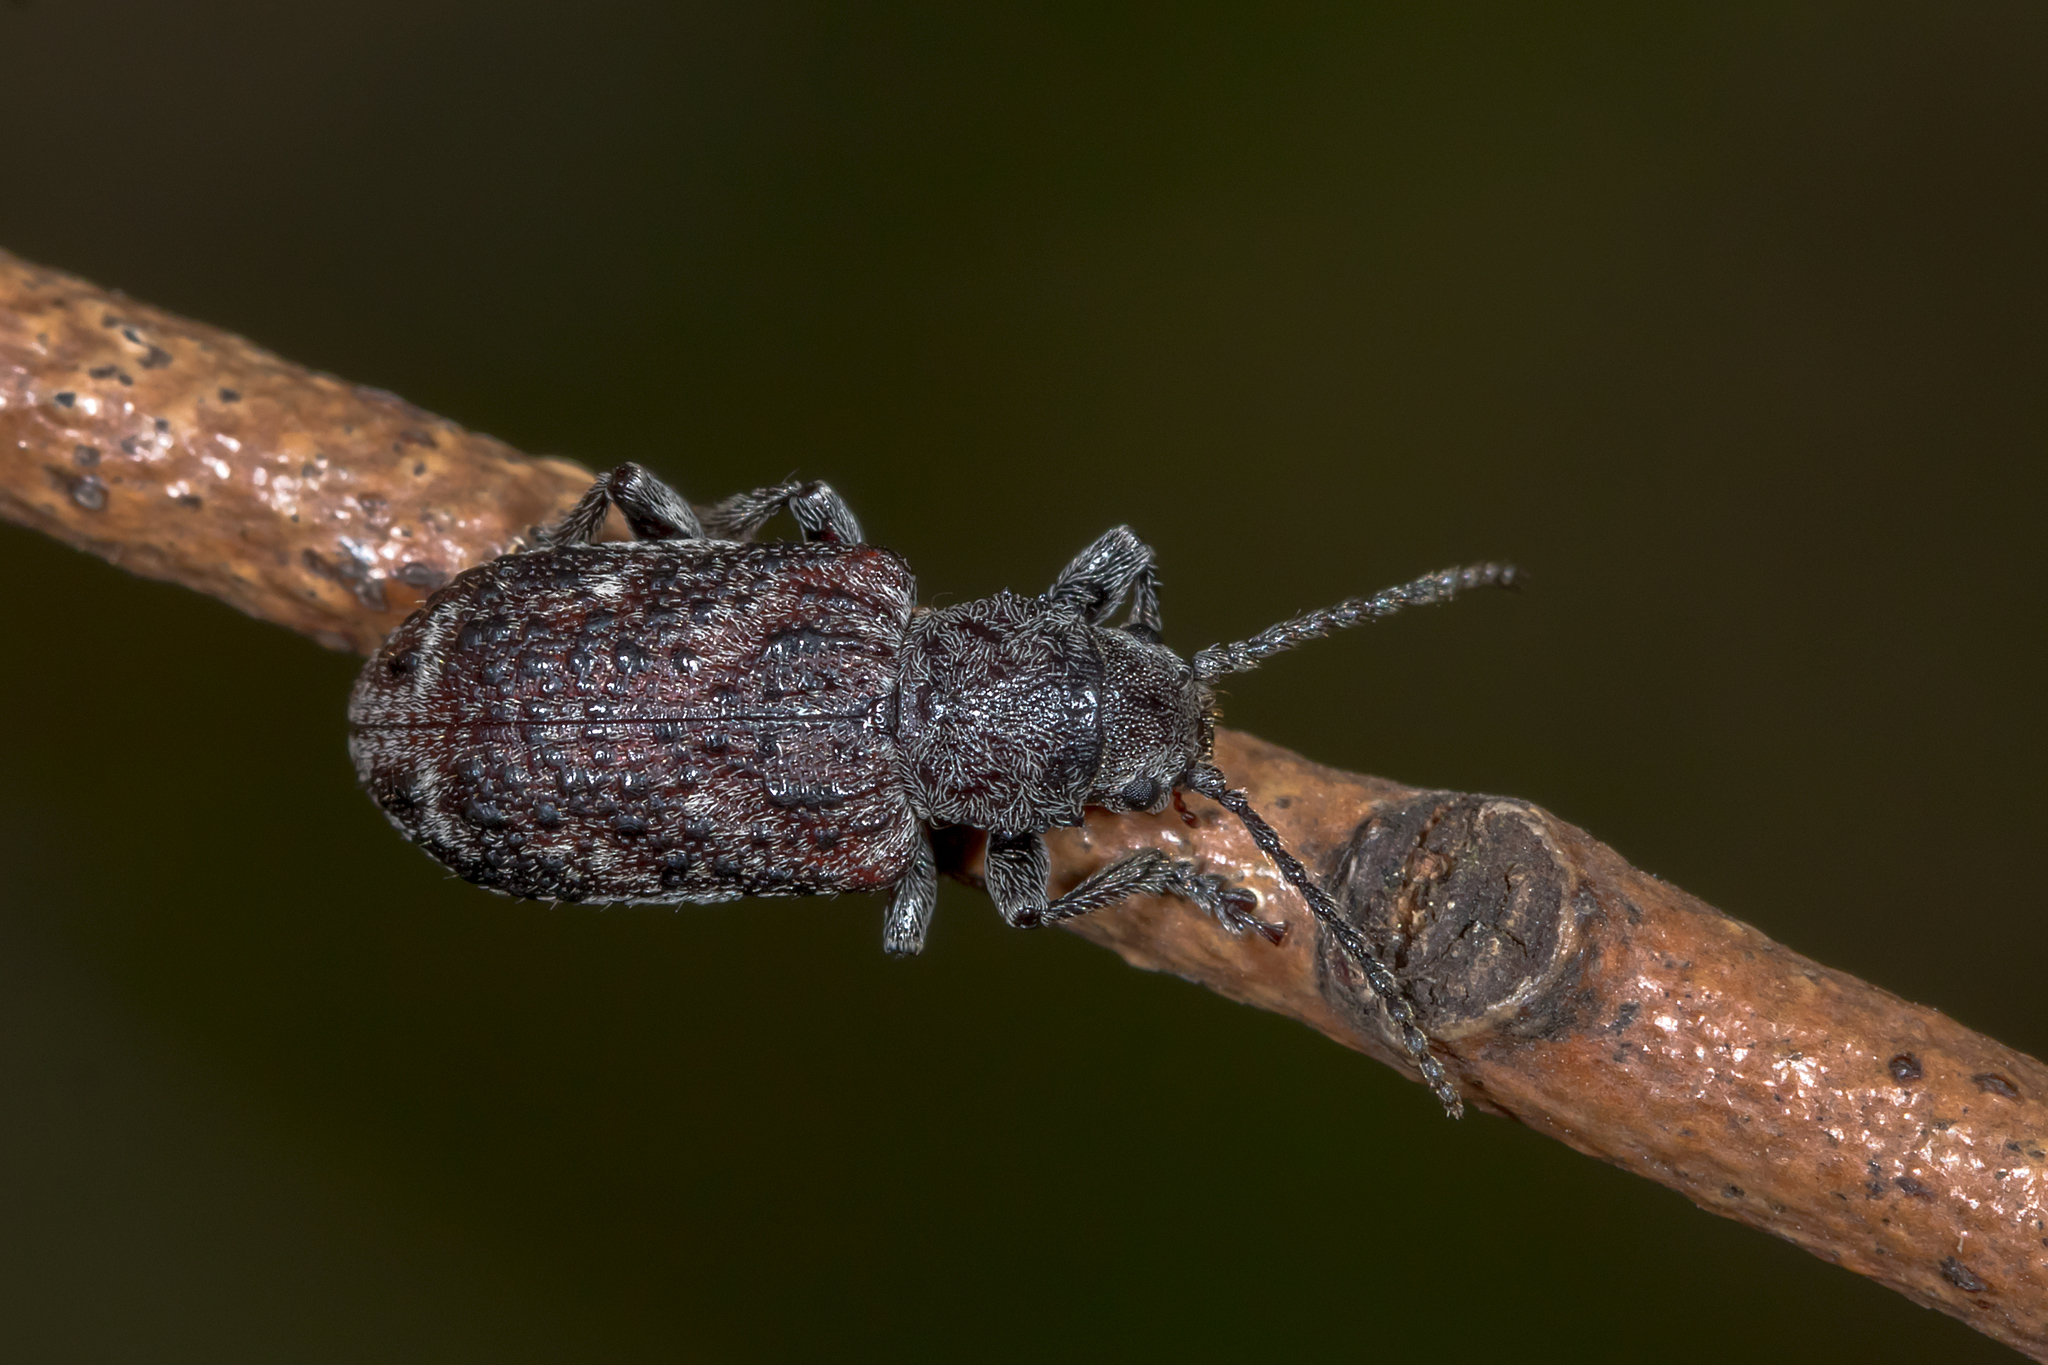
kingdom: Animalia
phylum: Arthropoda
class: Insecta
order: Coleoptera
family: Chrysomelidae
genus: Cheiloxena
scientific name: Cheiloxena insignis
